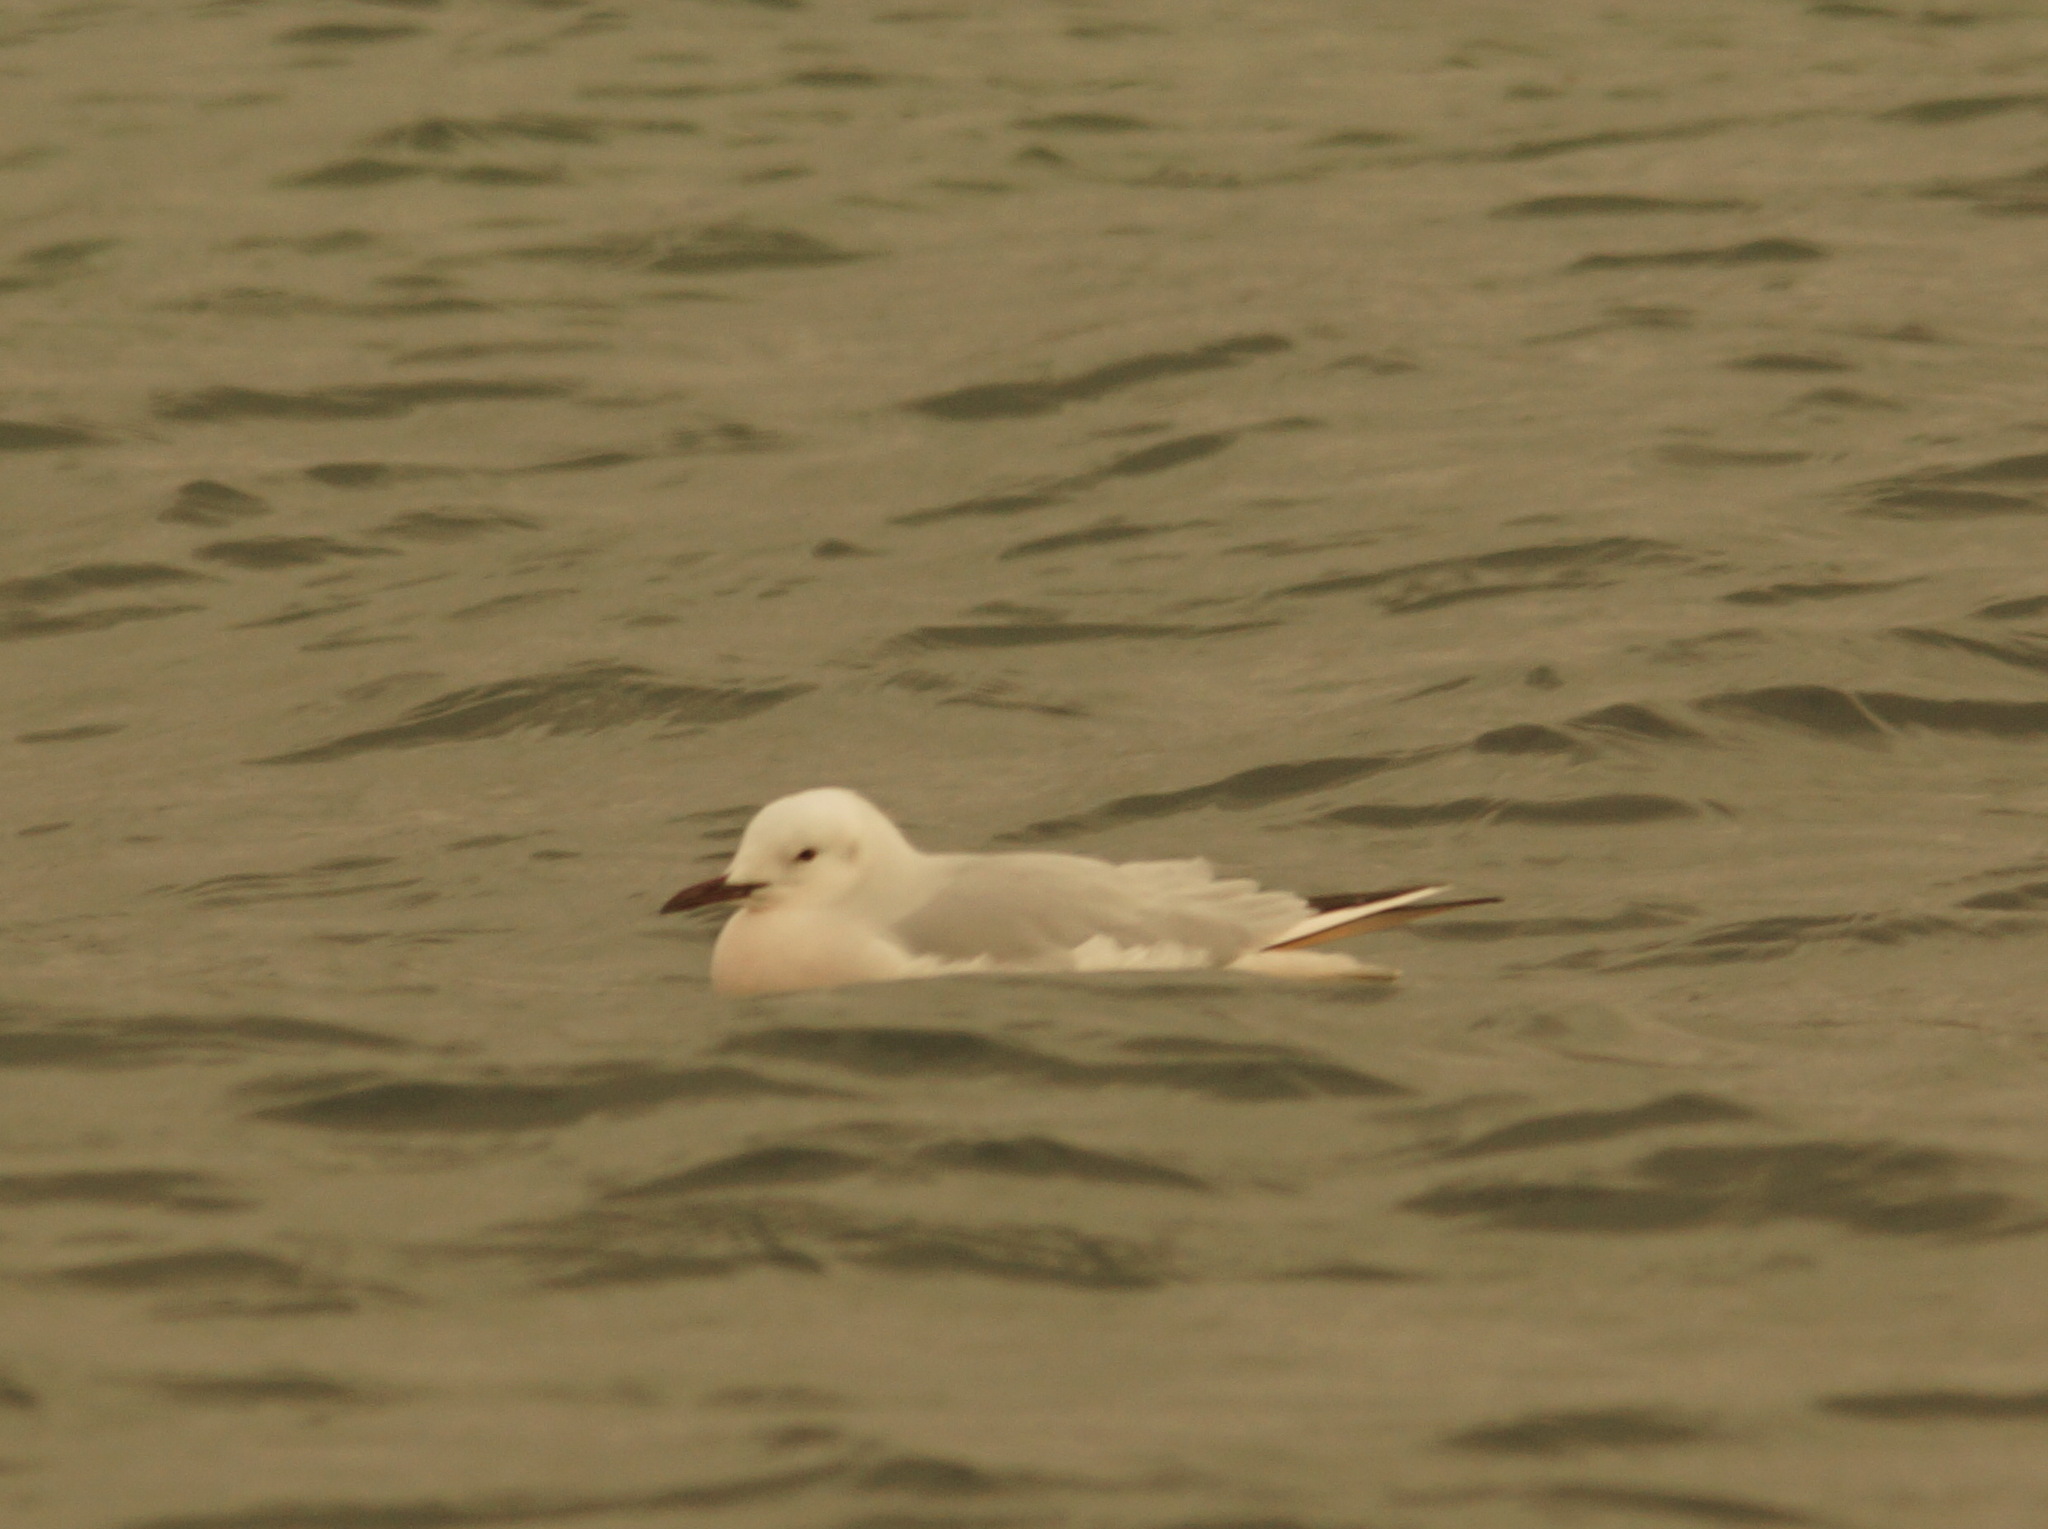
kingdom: Animalia
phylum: Chordata
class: Aves
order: Charadriiformes
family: Laridae
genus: Chroicocephalus
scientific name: Chroicocephalus genei
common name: Slender-billed gull
